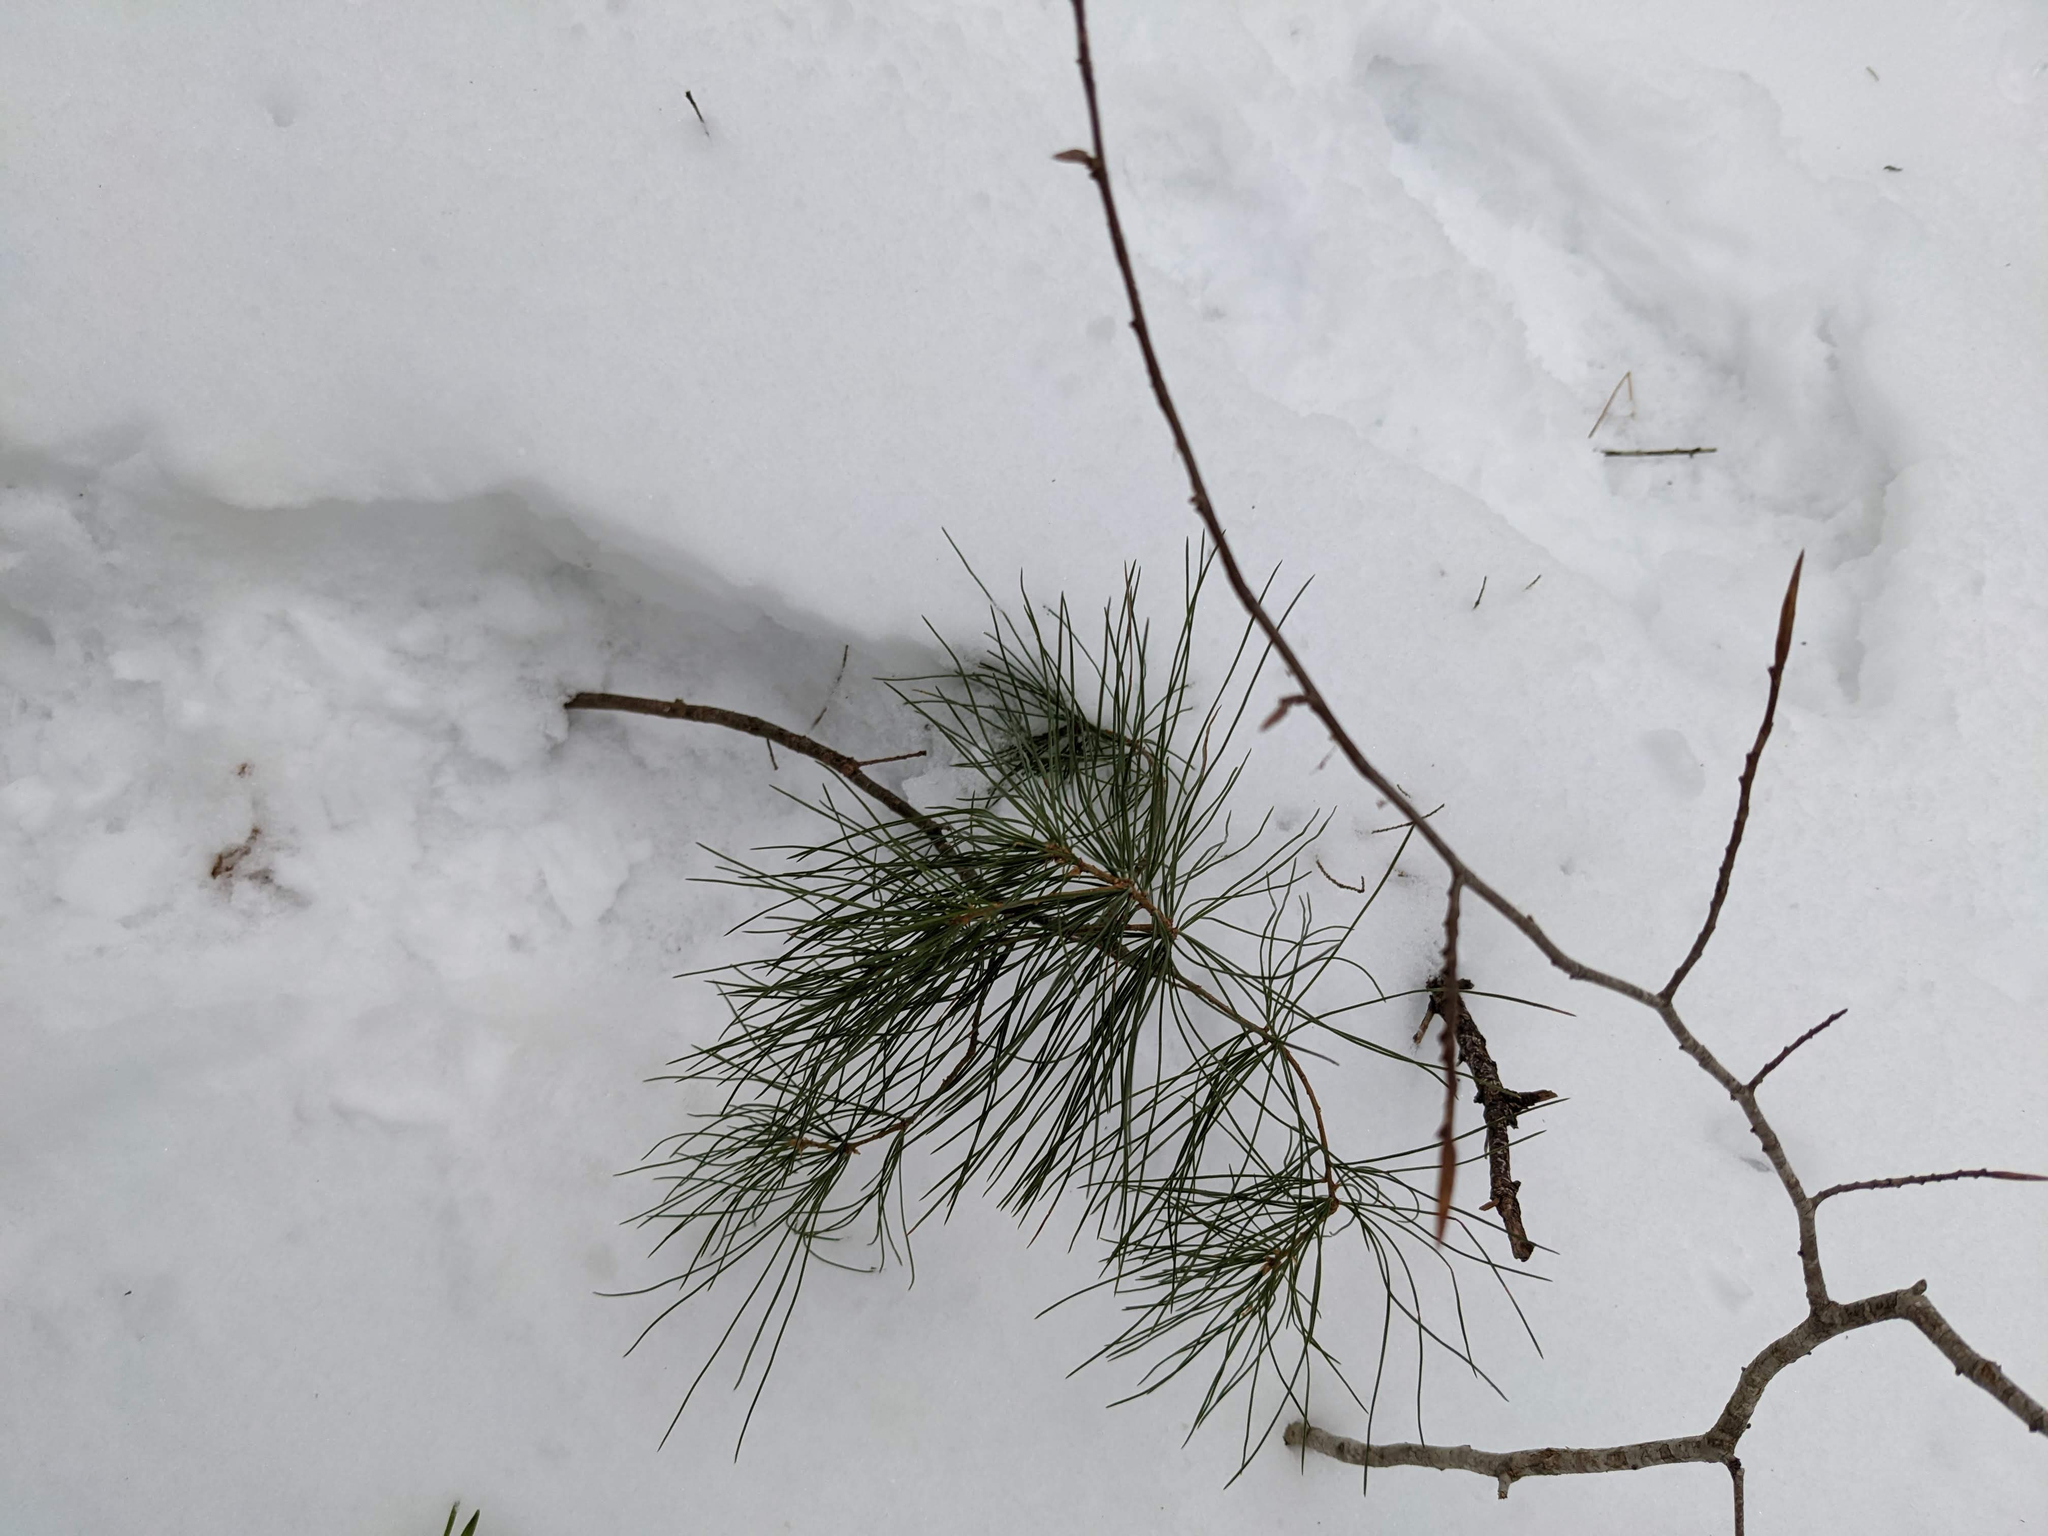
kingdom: Plantae
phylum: Tracheophyta
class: Pinopsida
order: Pinales
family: Pinaceae
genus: Pinus
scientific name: Pinus strobus
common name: Weymouth pine
